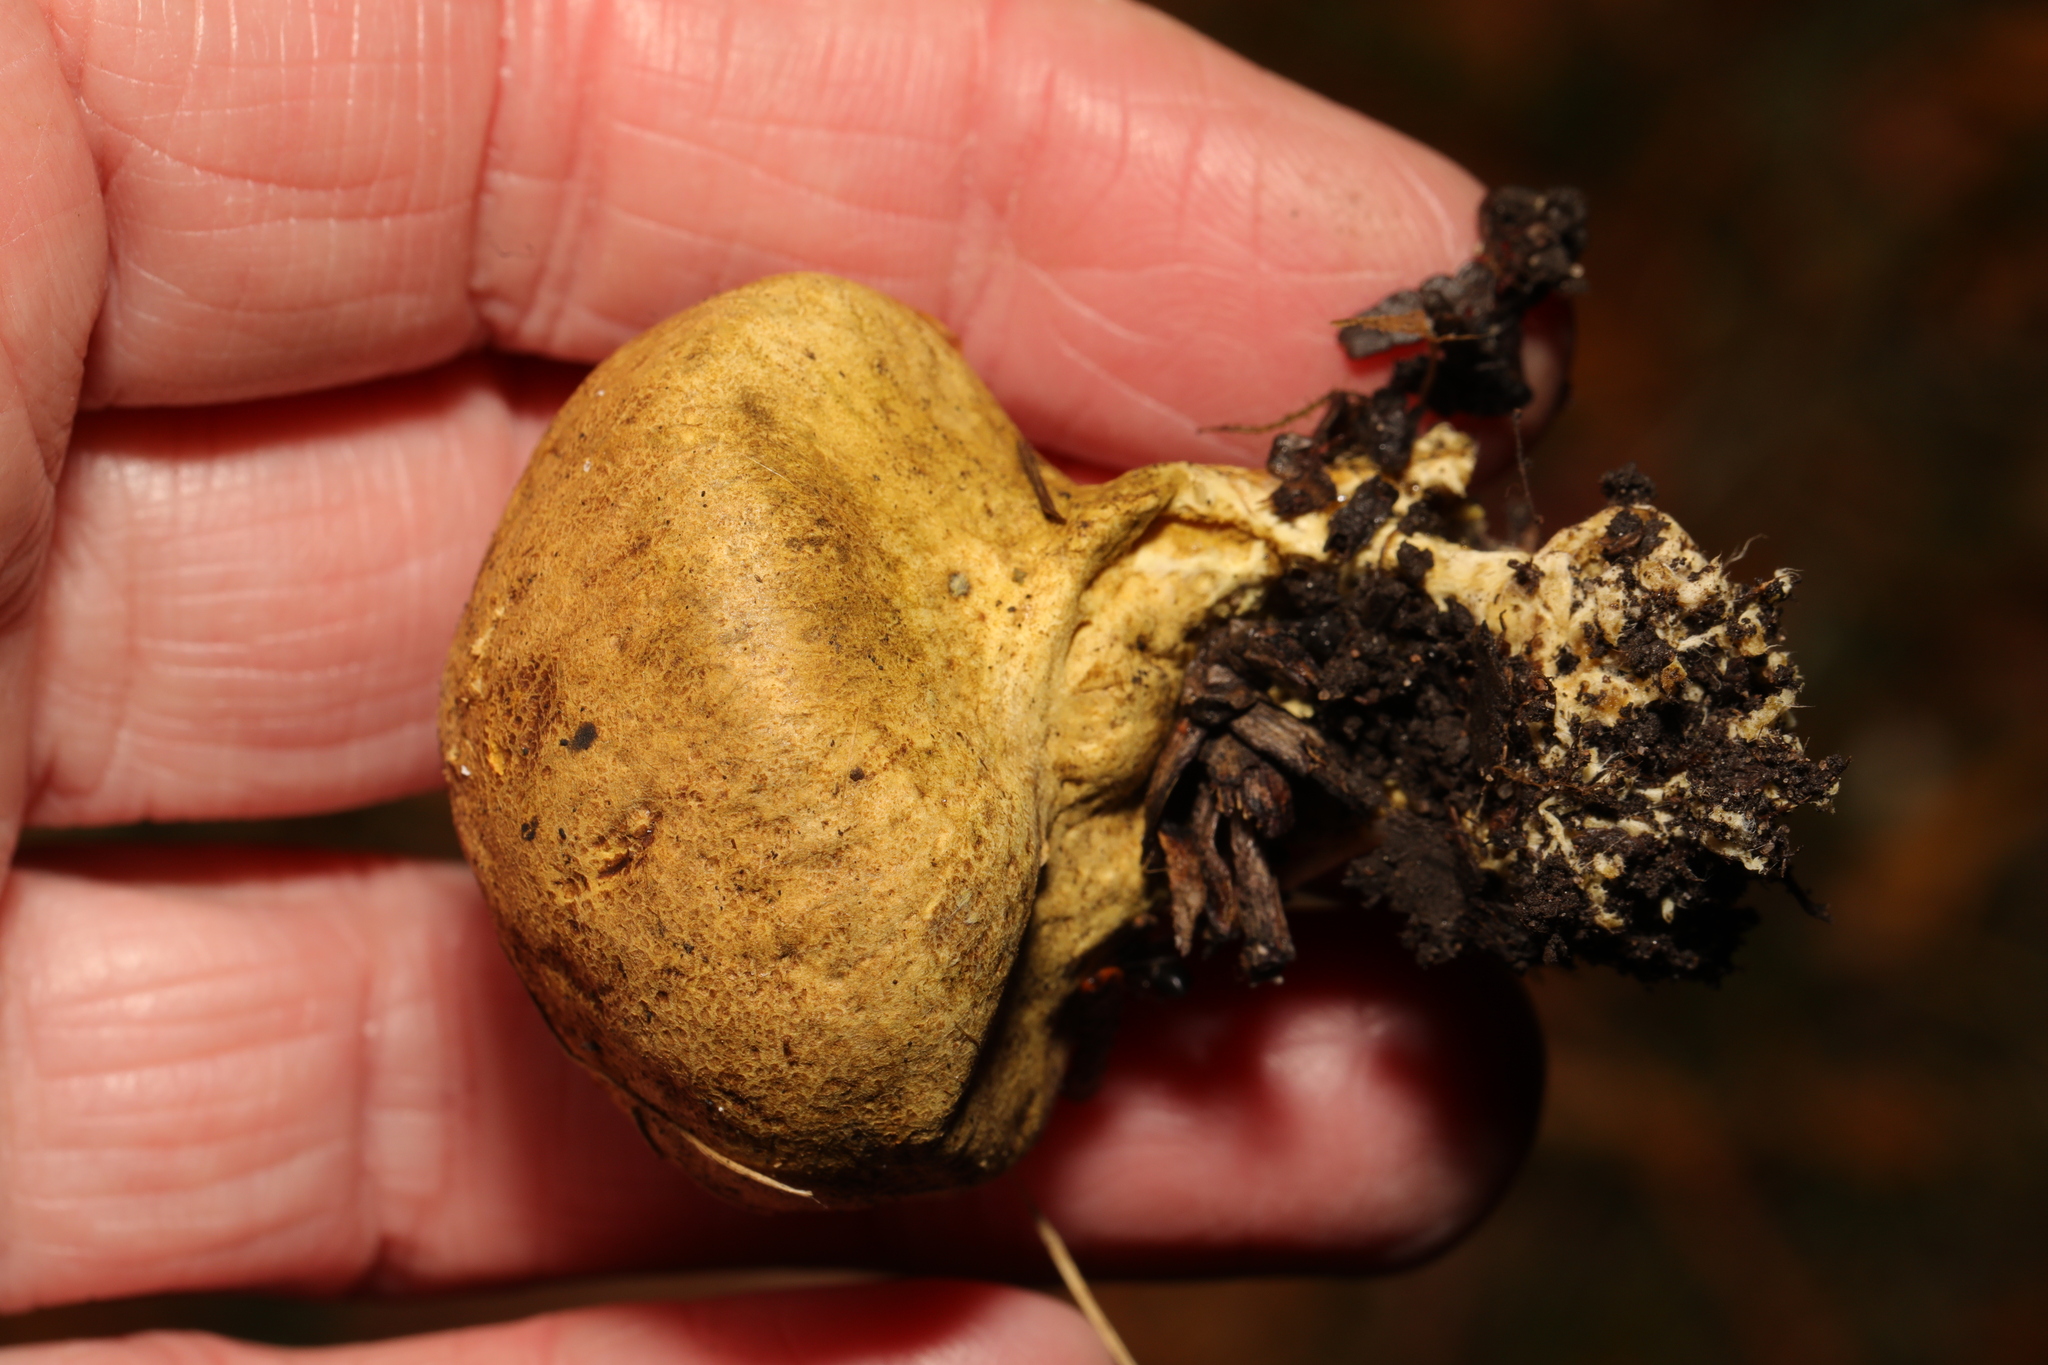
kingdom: Fungi
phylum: Basidiomycota
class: Agaricomycetes
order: Boletales
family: Sclerodermataceae
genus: Scleroderma
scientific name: Scleroderma citrinum
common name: Common earthball
